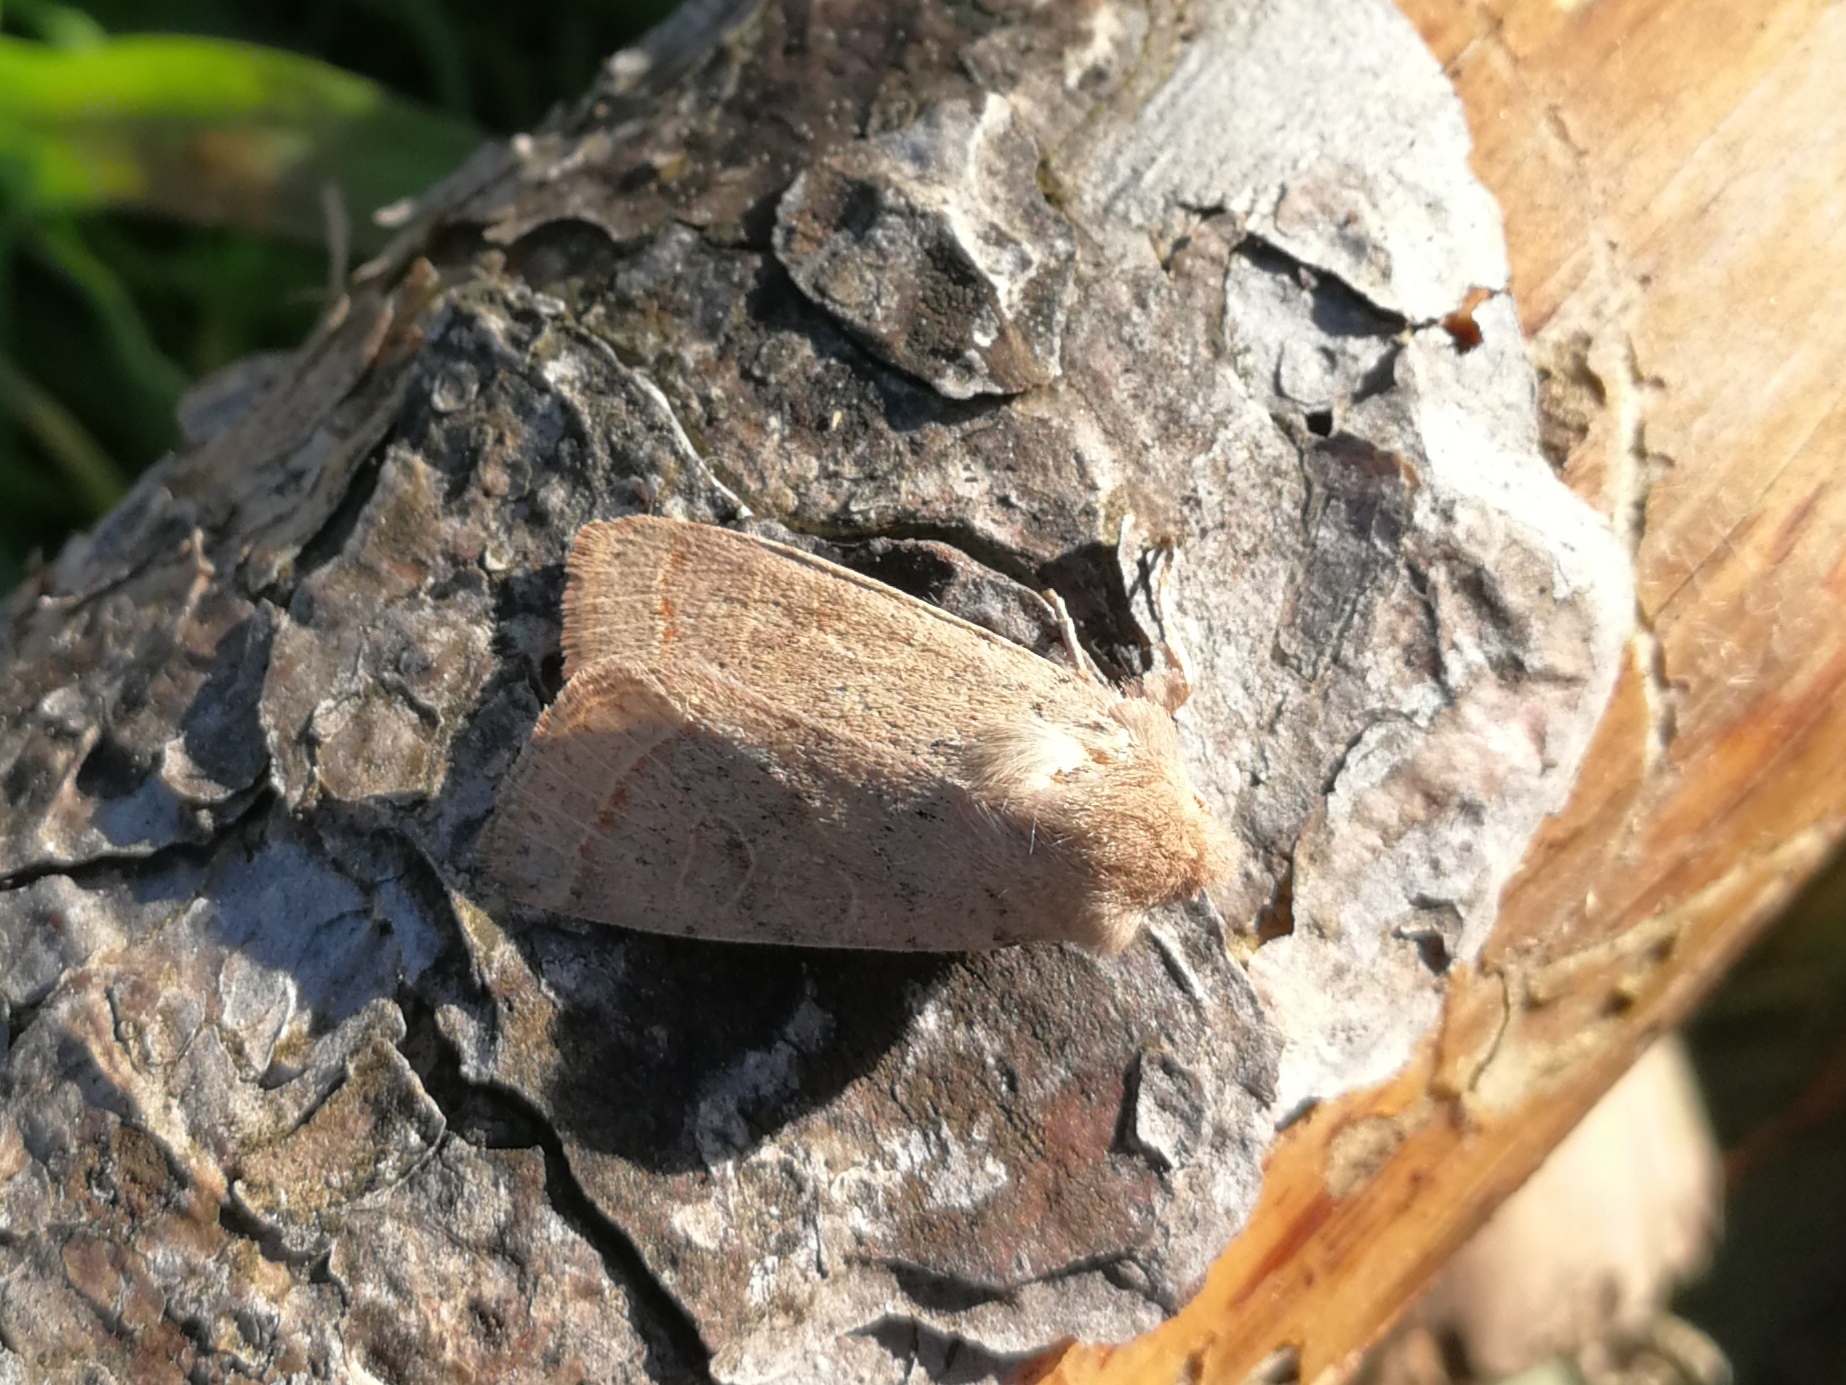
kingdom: Animalia
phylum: Arthropoda
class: Insecta
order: Lepidoptera
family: Noctuidae
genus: Orthosia
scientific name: Orthosia cerasi
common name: Common quaker
